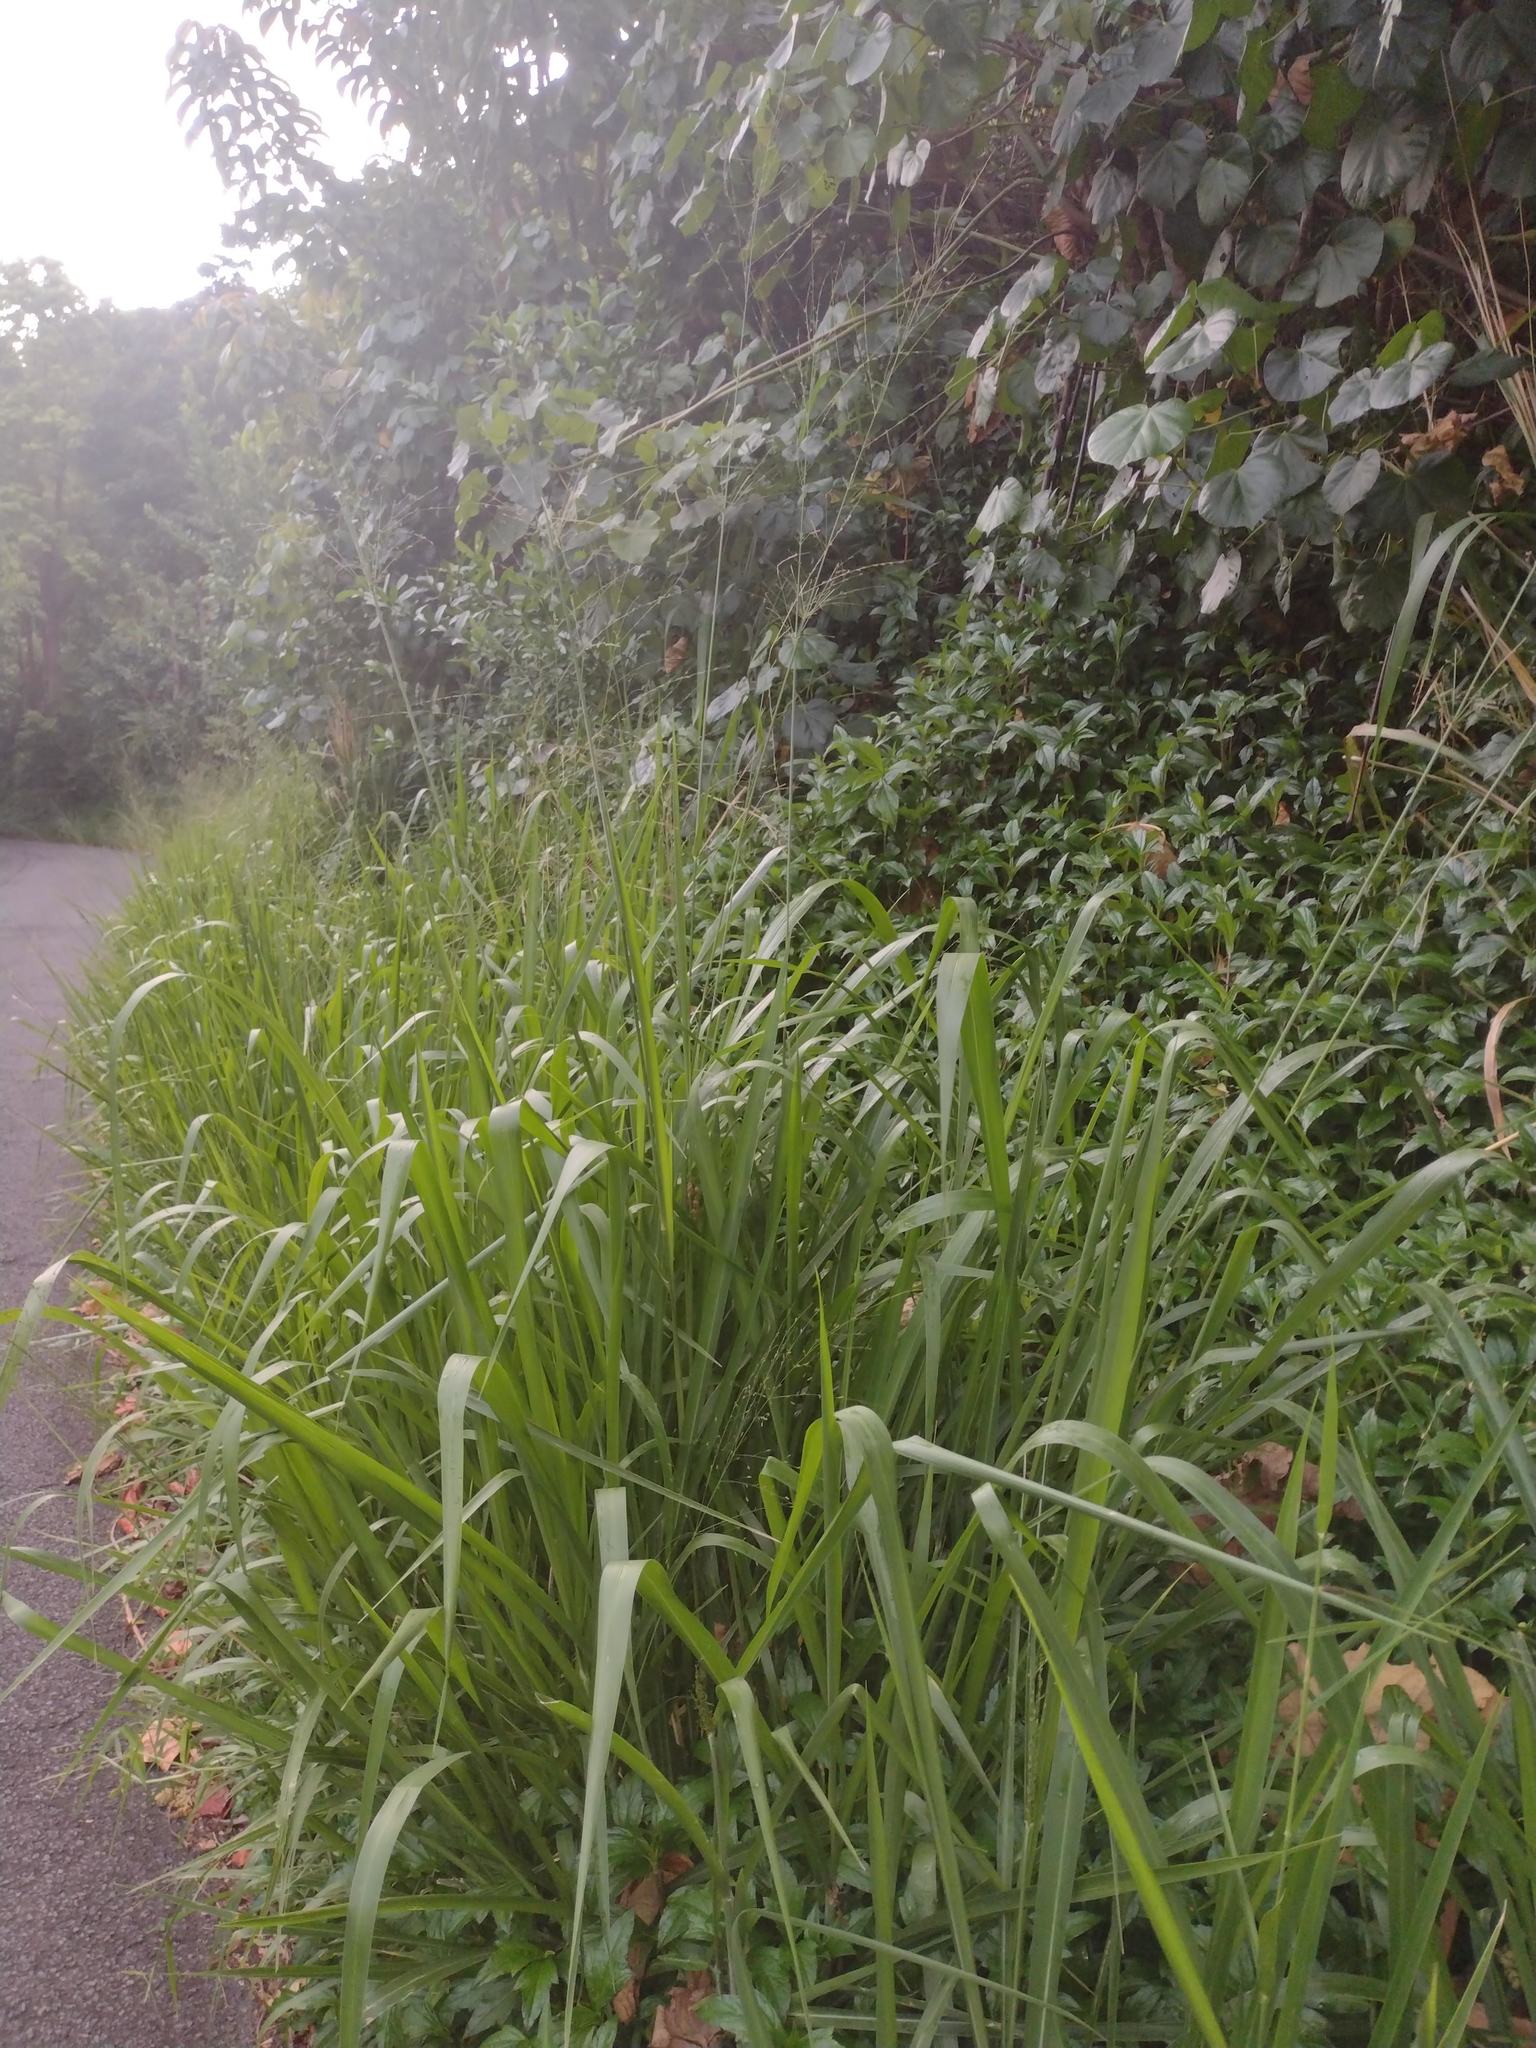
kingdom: Plantae
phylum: Tracheophyta
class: Liliopsida
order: Poales
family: Poaceae
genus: Megathyrsus
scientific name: Megathyrsus maximus
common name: Guineagrass
